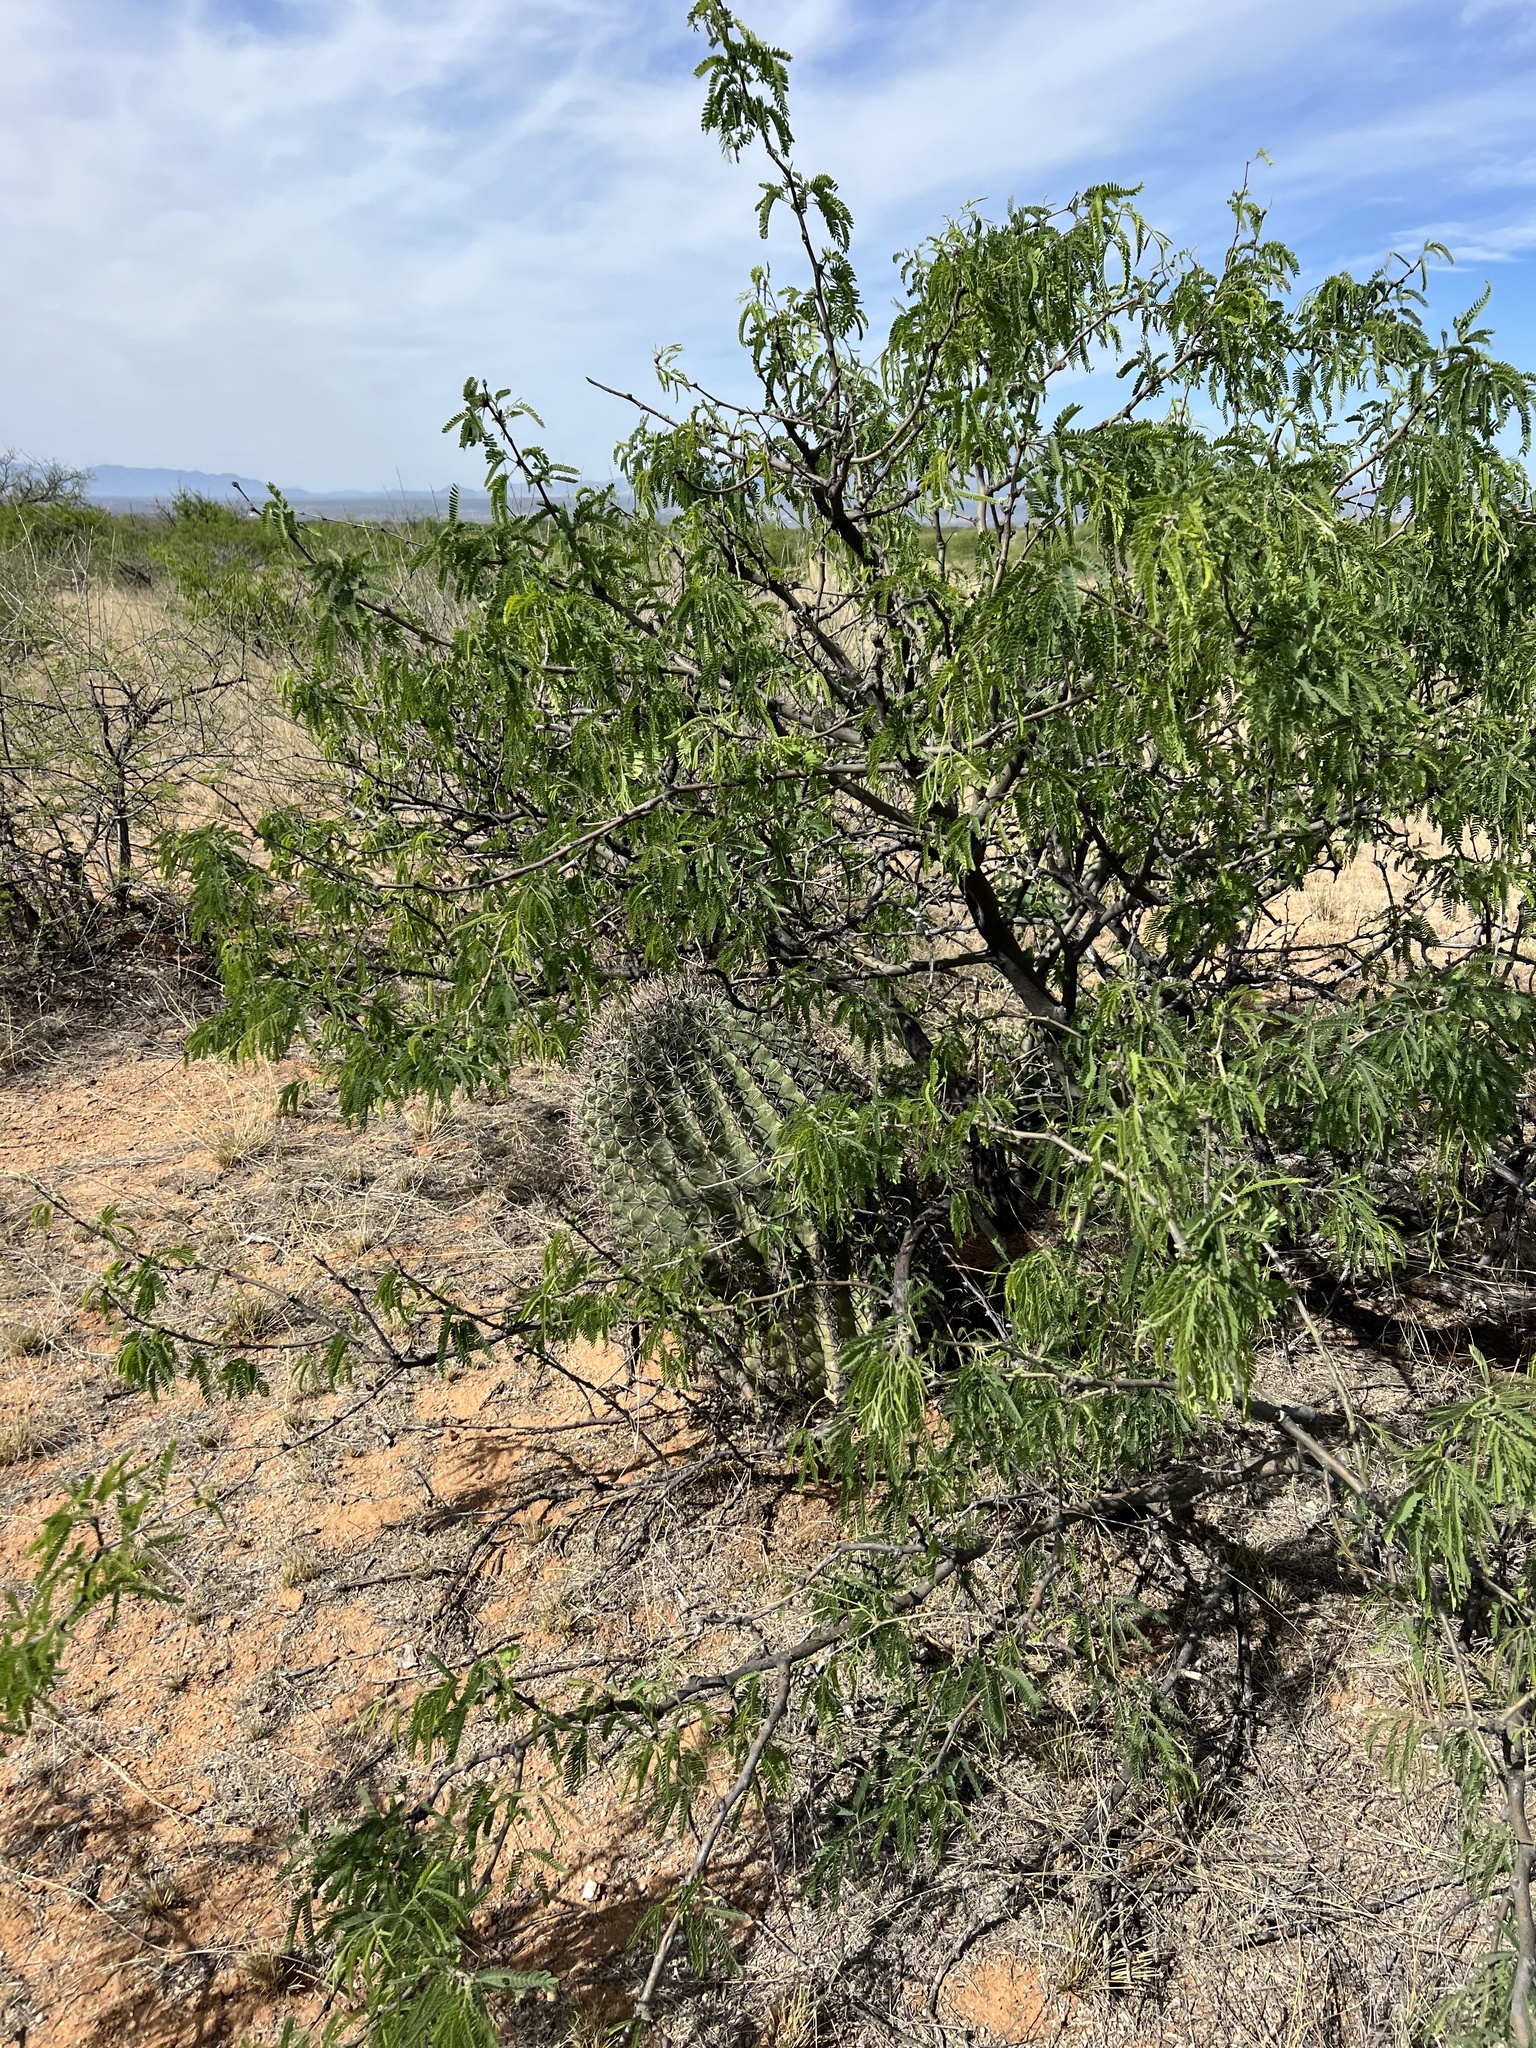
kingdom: Plantae
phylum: Tracheophyta
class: Magnoliopsida
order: Caryophyllales
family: Cactaceae
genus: Ferocactus
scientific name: Ferocactus wislizeni
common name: Candy barrel cactus
